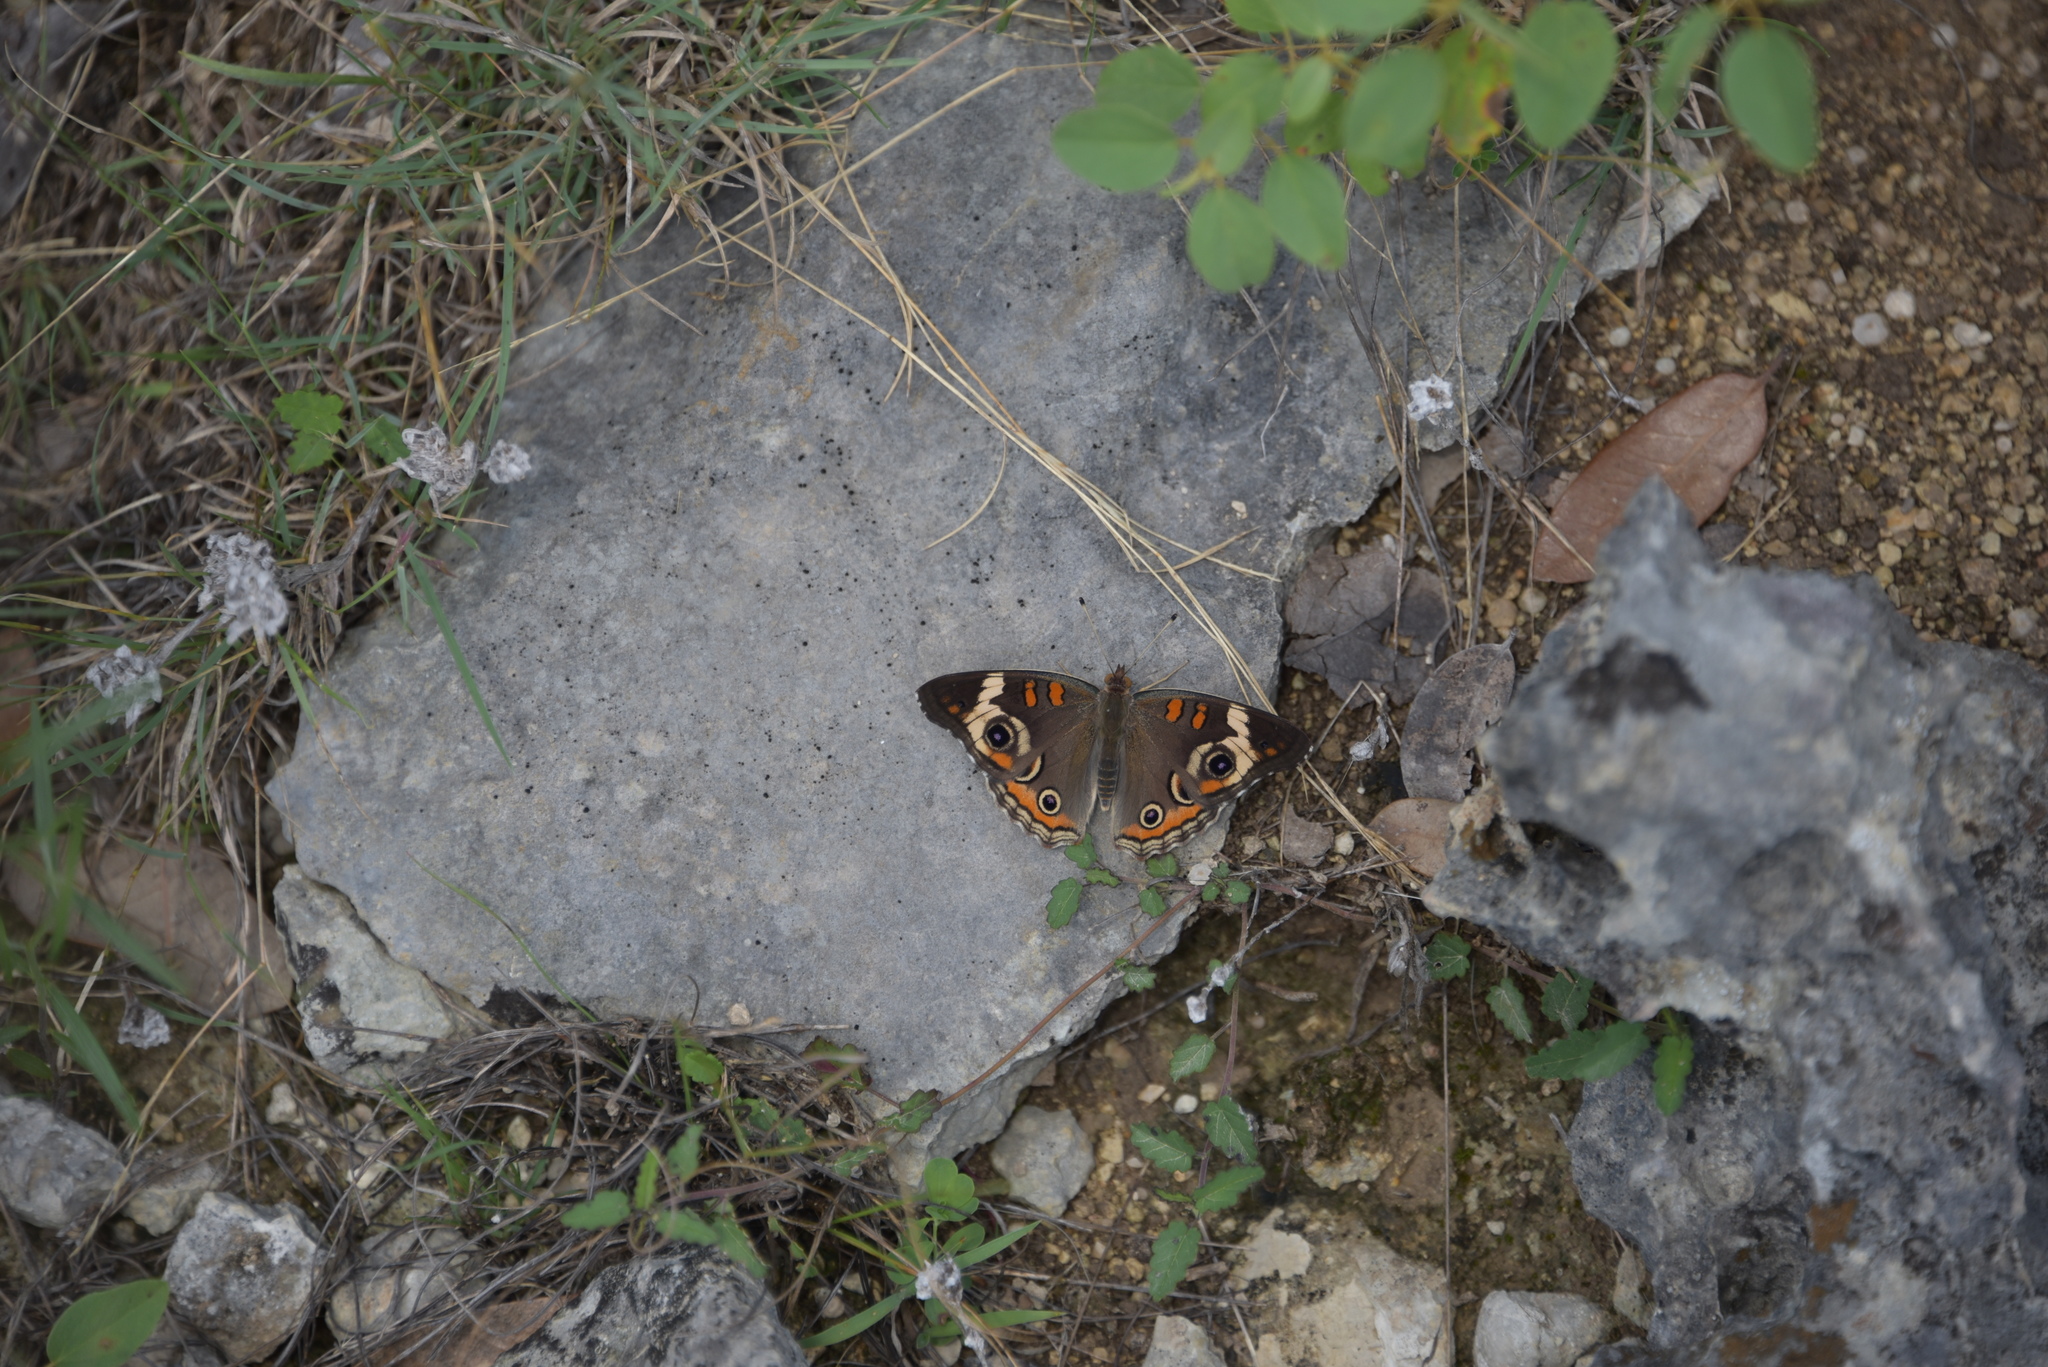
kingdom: Animalia
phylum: Arthropoda
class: Insecta
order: Lepidoptera
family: Nymphalidae
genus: Junonia
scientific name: Junonia coenia
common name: Common buckeye
